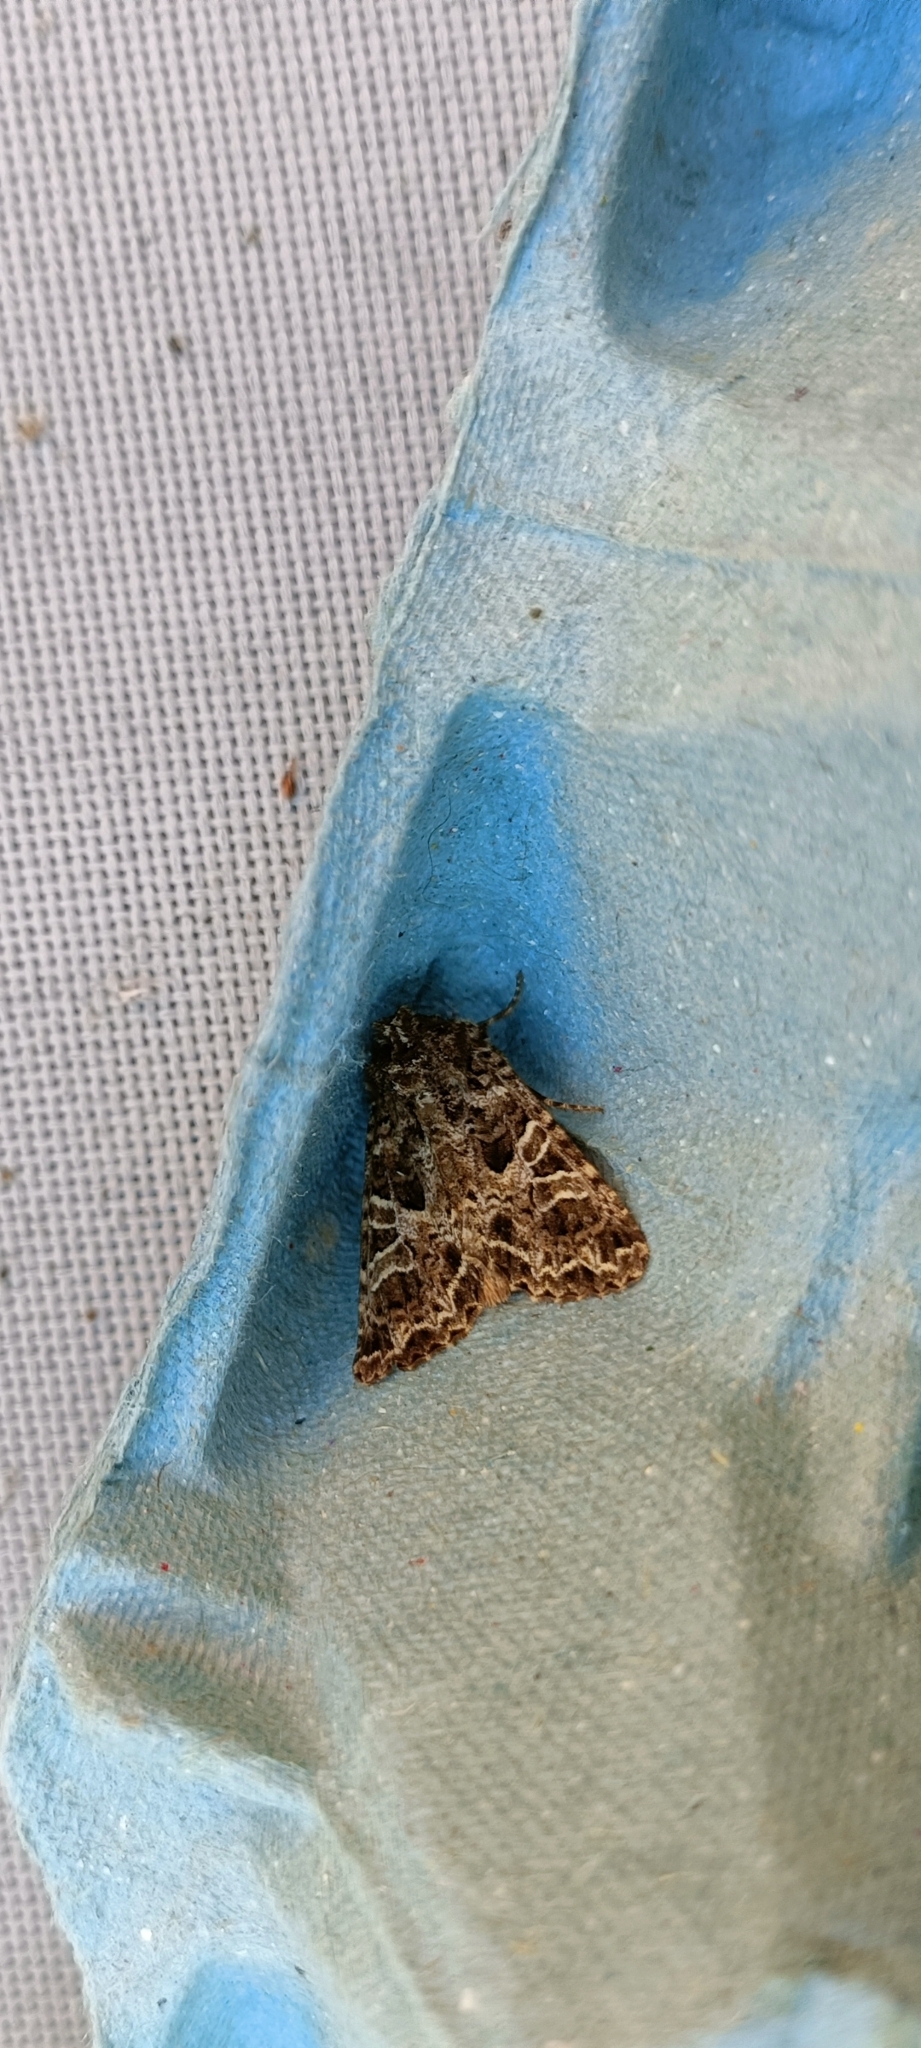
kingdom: Animalia
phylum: Arthropoda
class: Insecta
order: Lepidoptera
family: Noctuidae
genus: Hadena
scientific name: Hadena bicruris
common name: Lychnis
